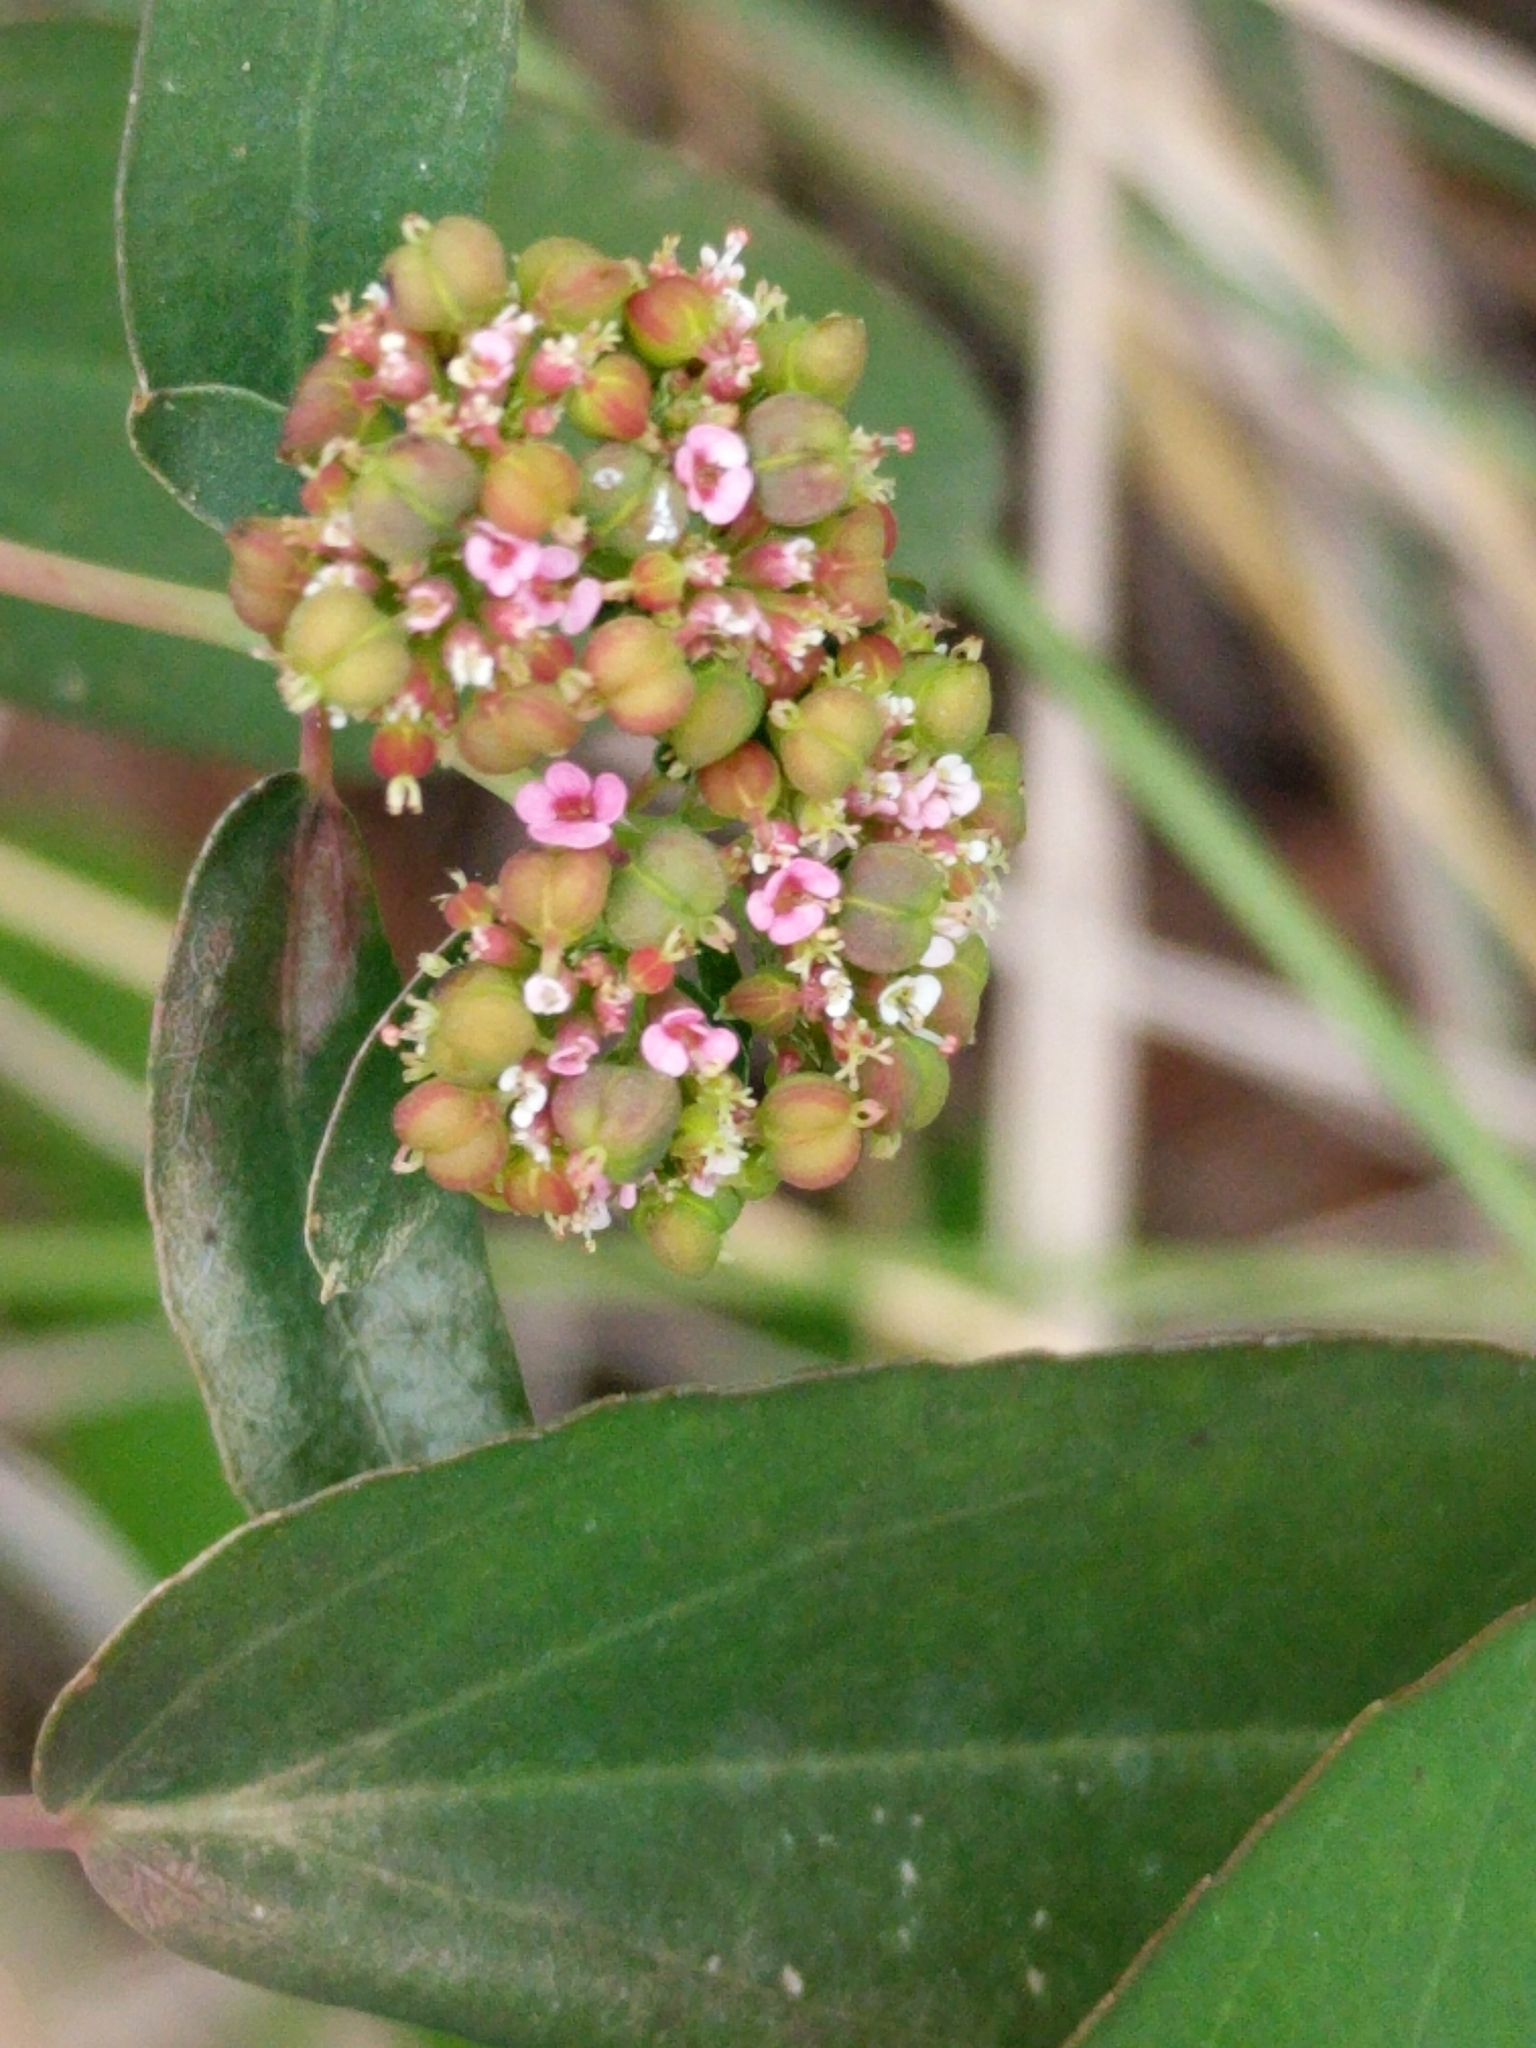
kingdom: Plantae
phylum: Tracheophyta
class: Magnoliopsida
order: Malpighiales
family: Euphorbiaceae
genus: Euphorbia
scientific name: Euphorbia hypericifolia
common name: Graceful sandmat
